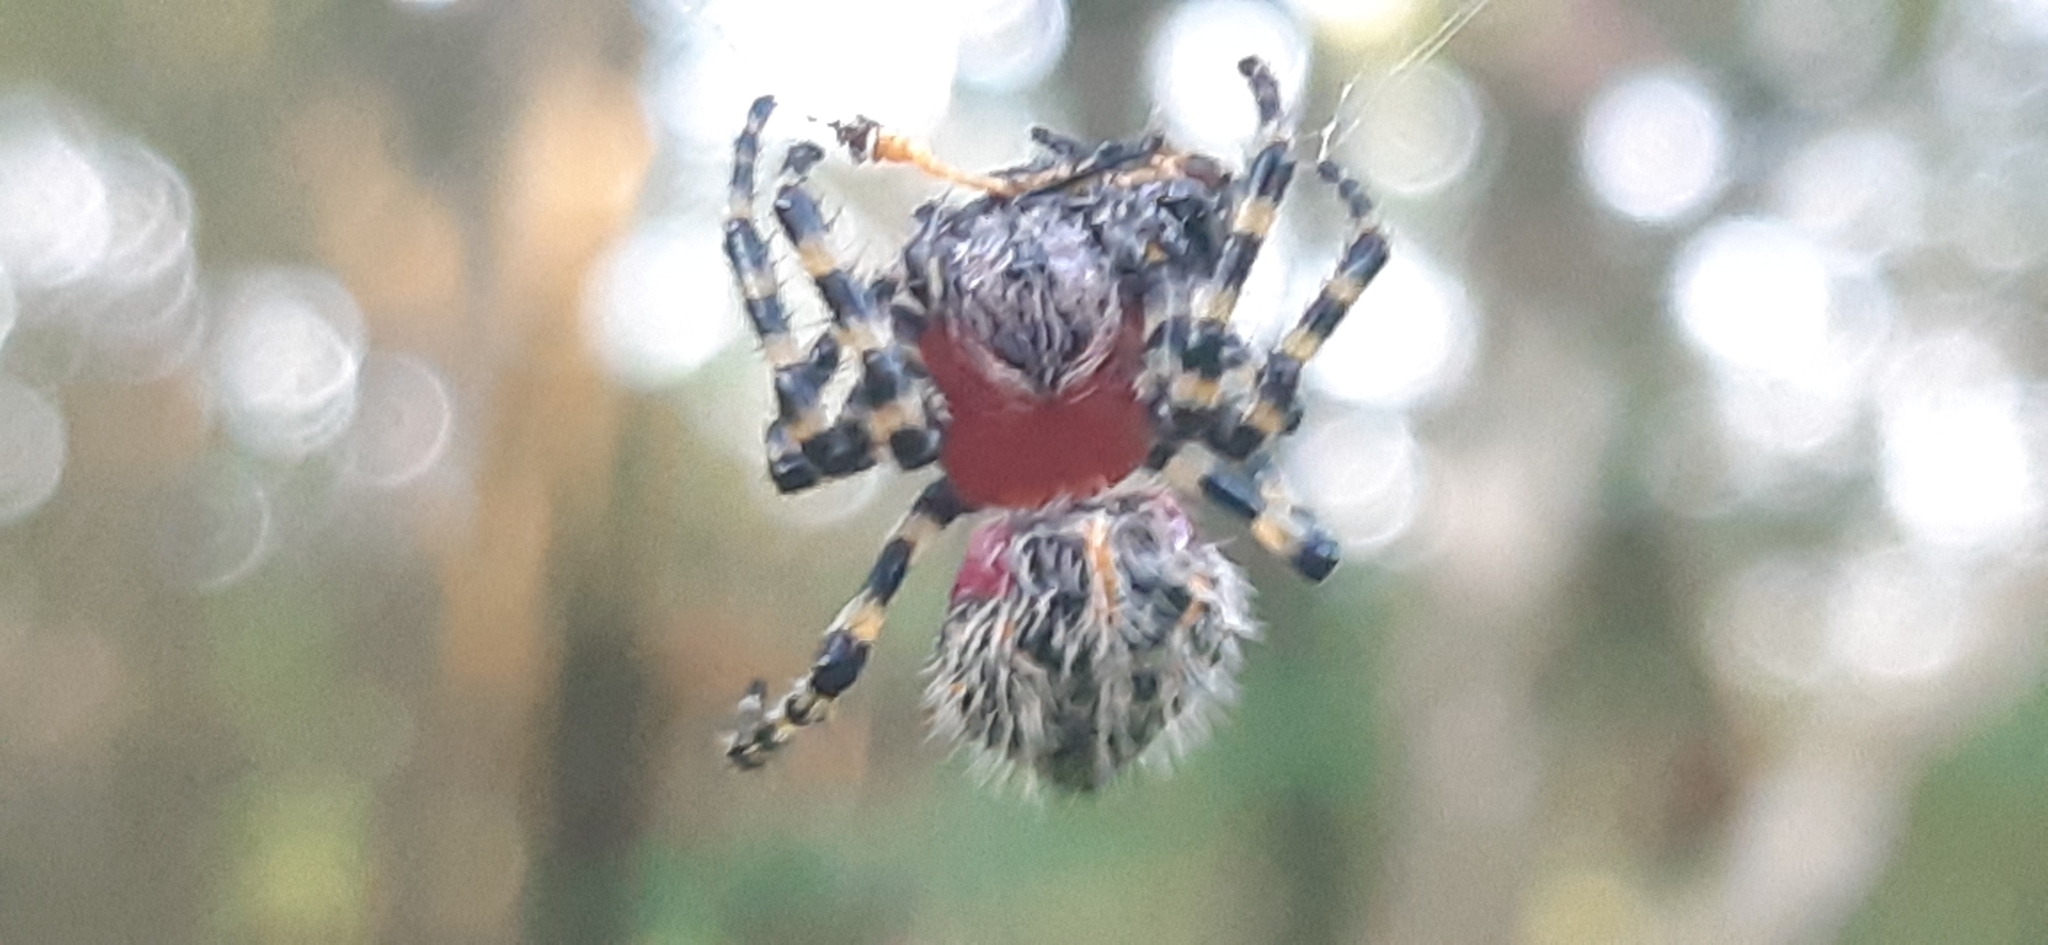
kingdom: Animalia
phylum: Arthropoda
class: Arachnida
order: Araneae
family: Araneidae
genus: Alpaida
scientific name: Alpaida alticeps
